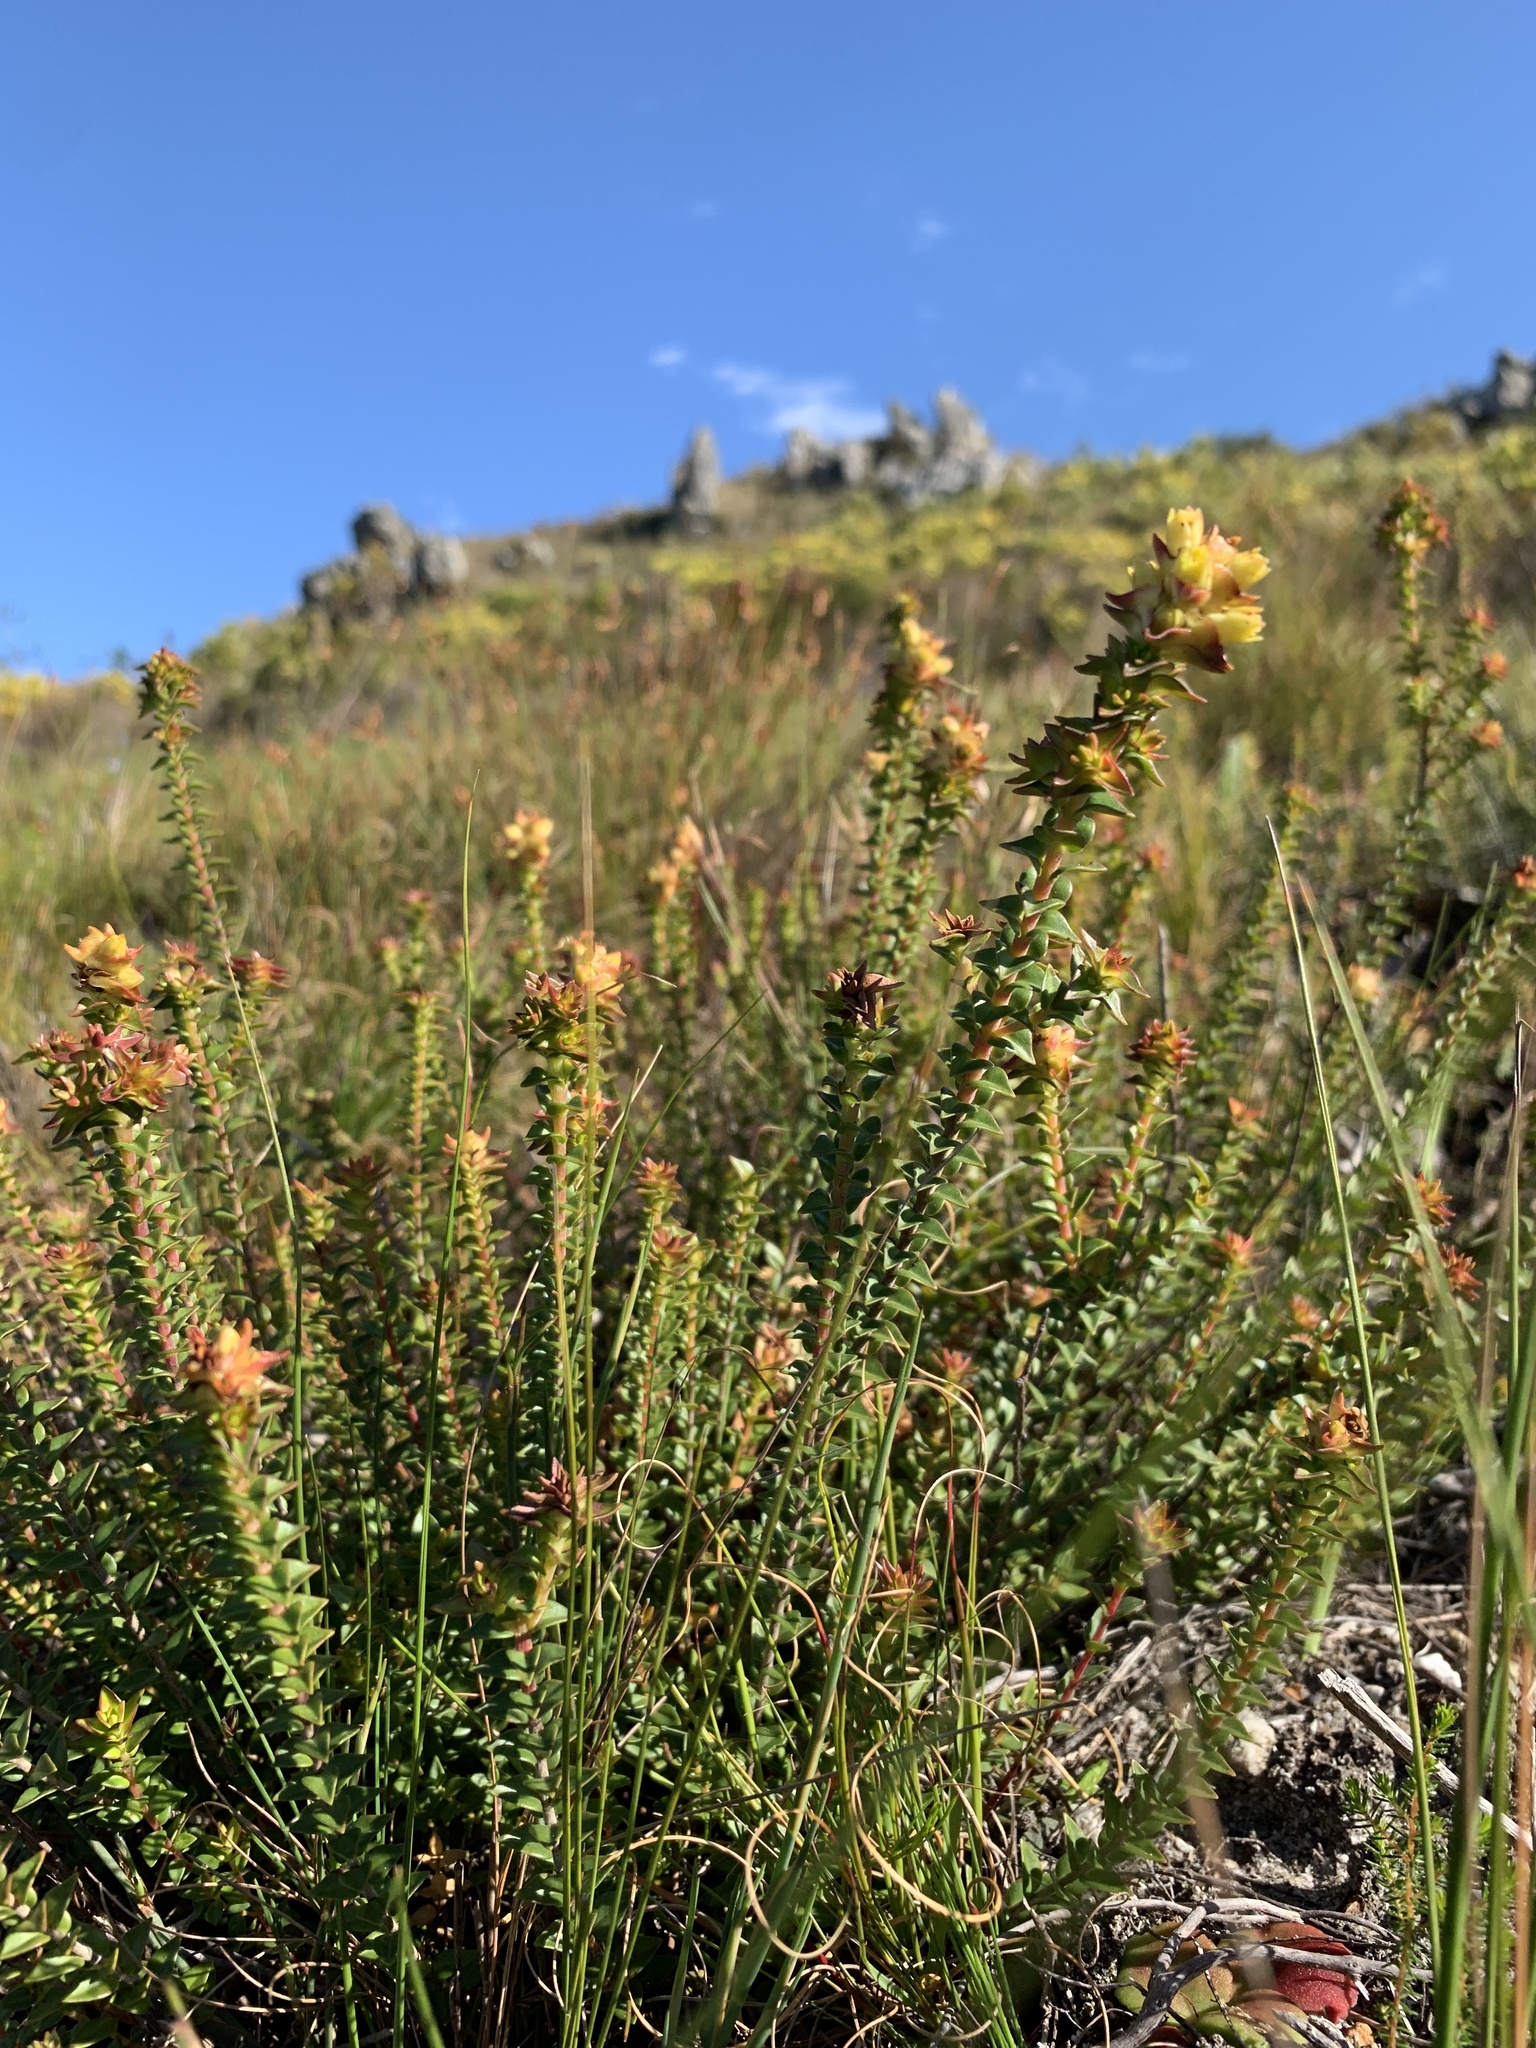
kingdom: Plantae
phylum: Tracheophyta
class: Magnoliopsida
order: Myrtales
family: Penaeaceae
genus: Penaea
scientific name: Penaea mucronata
